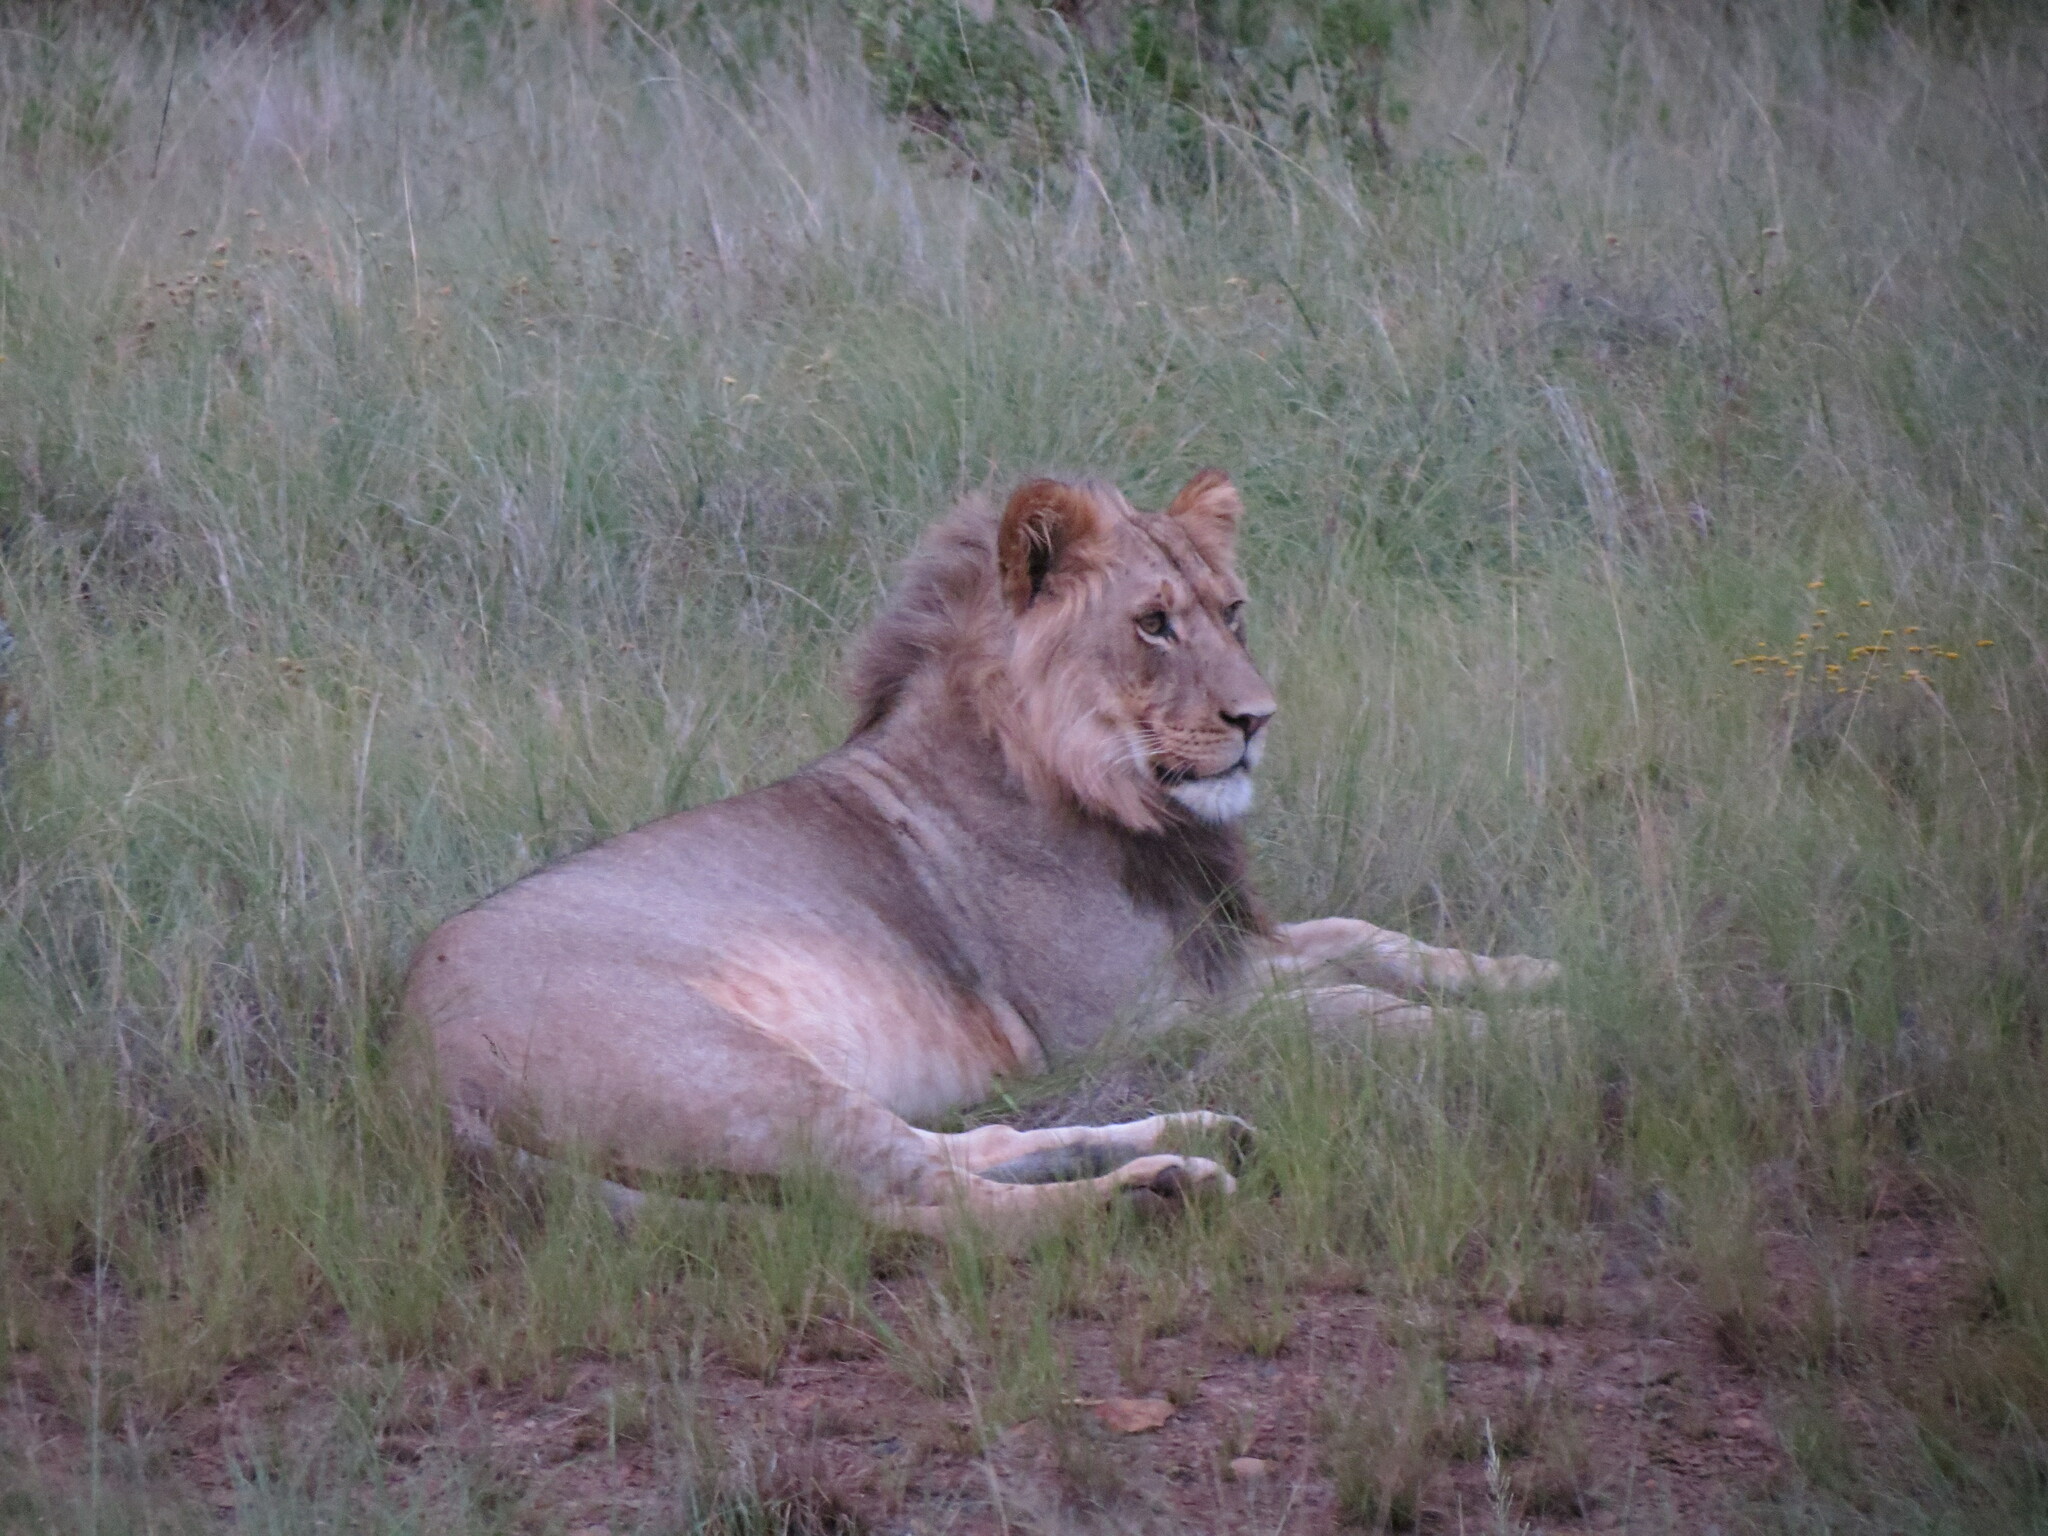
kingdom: Animalia
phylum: Chordata
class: Mammalia
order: Carnivora
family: Felidae
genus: Panthera
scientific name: Panthera leo
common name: Lion
